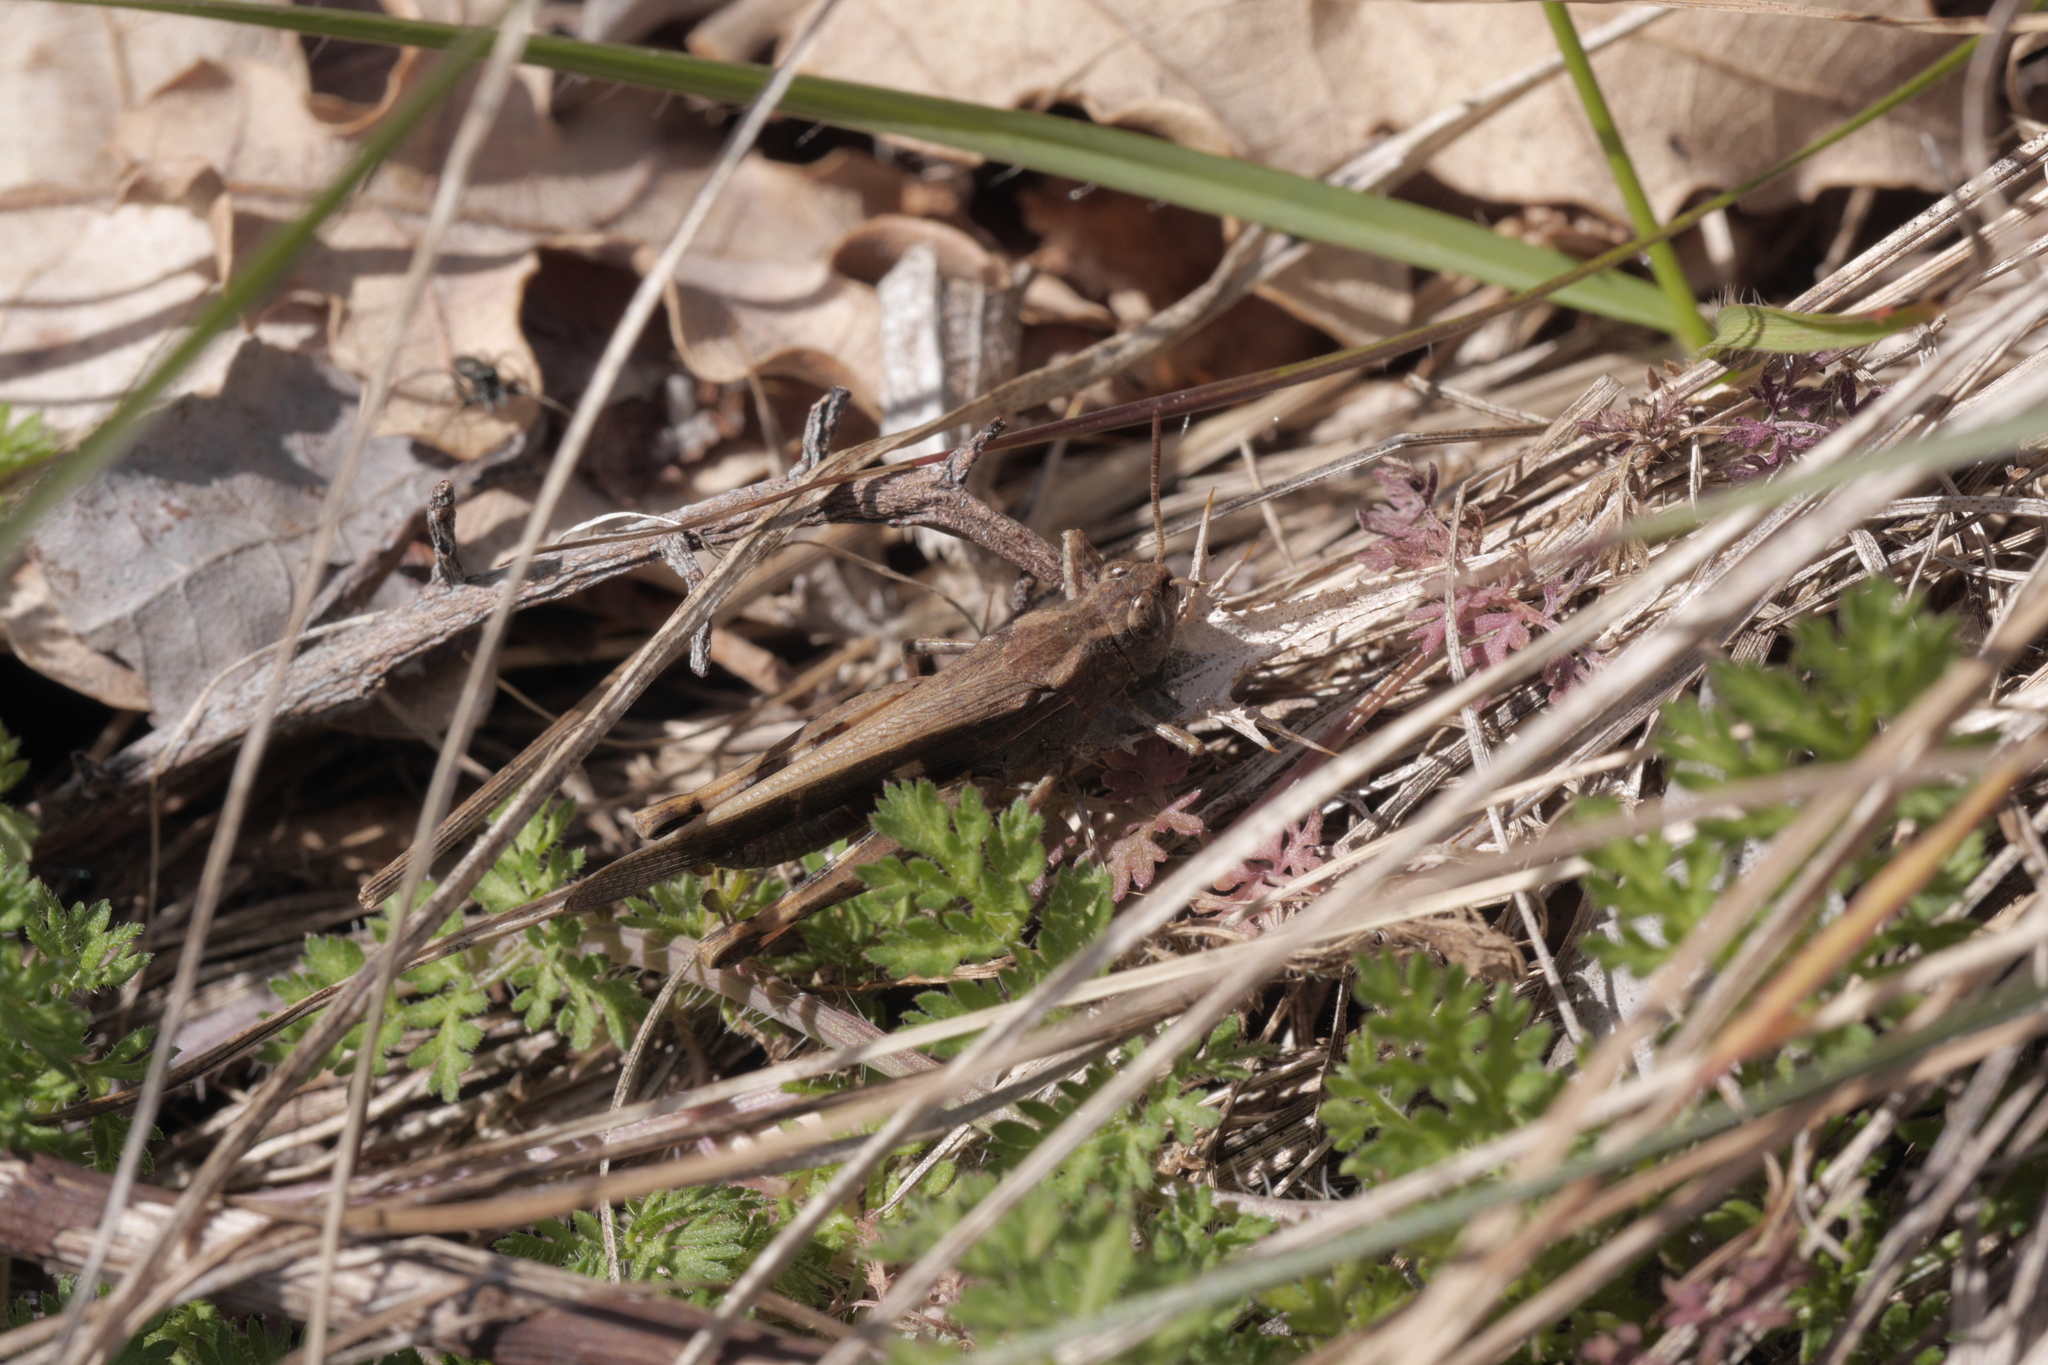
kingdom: Animalia
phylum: Arthropoda
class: Insecta
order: Orthoptera
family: Acrididae
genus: Aiolopus
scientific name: Aiolopus strepens
